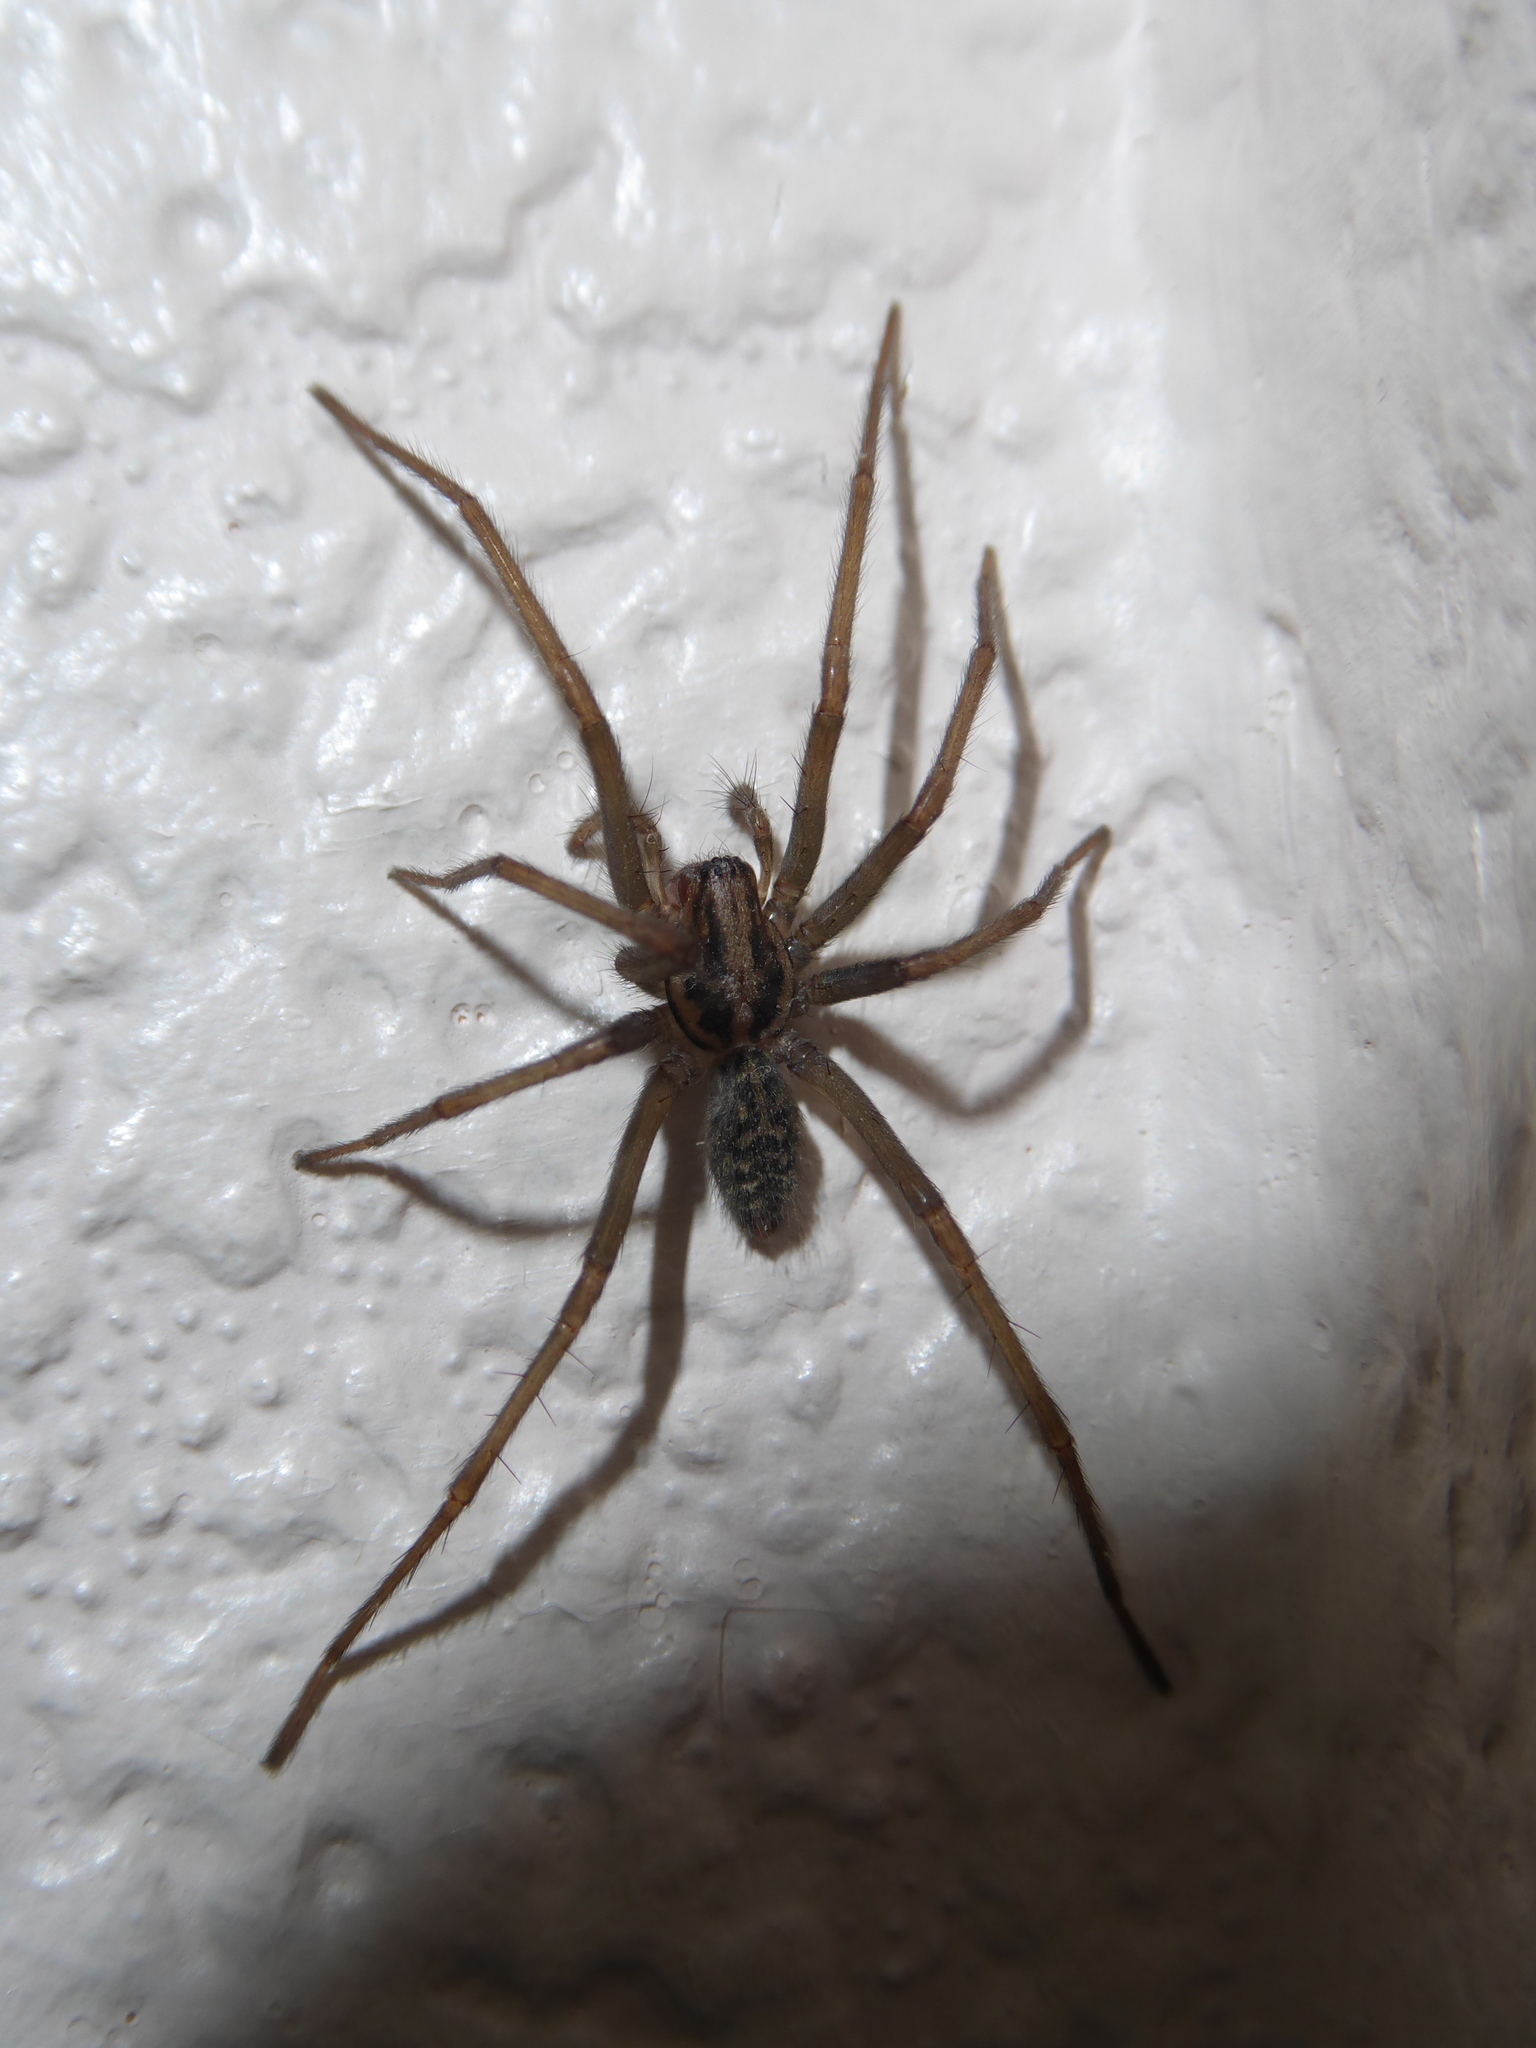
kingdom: Animalia
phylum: Arthropoda
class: Arachnida
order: Araneae
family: Agelenidae
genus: Eratigena
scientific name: Eratigena
